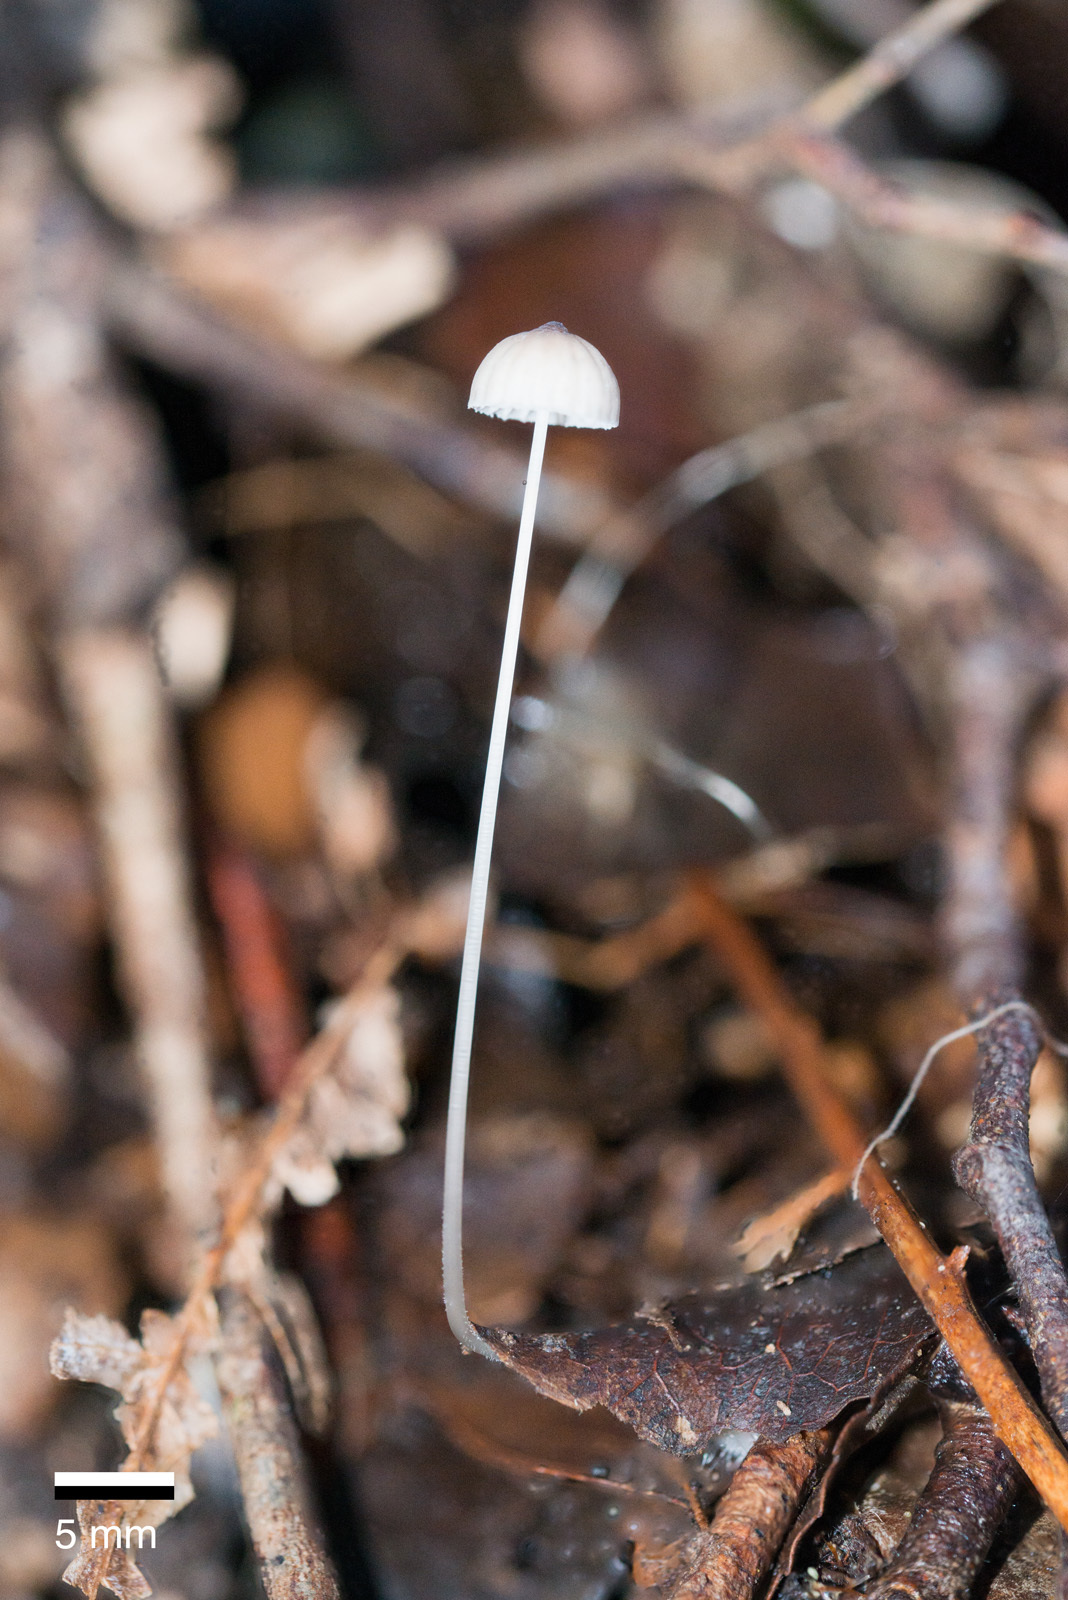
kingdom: Fungi
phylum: Basidiomycota
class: Agaricomycetes
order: Agaricales
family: Mycenaceae
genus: Mycena
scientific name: Mycena cystidiosa
